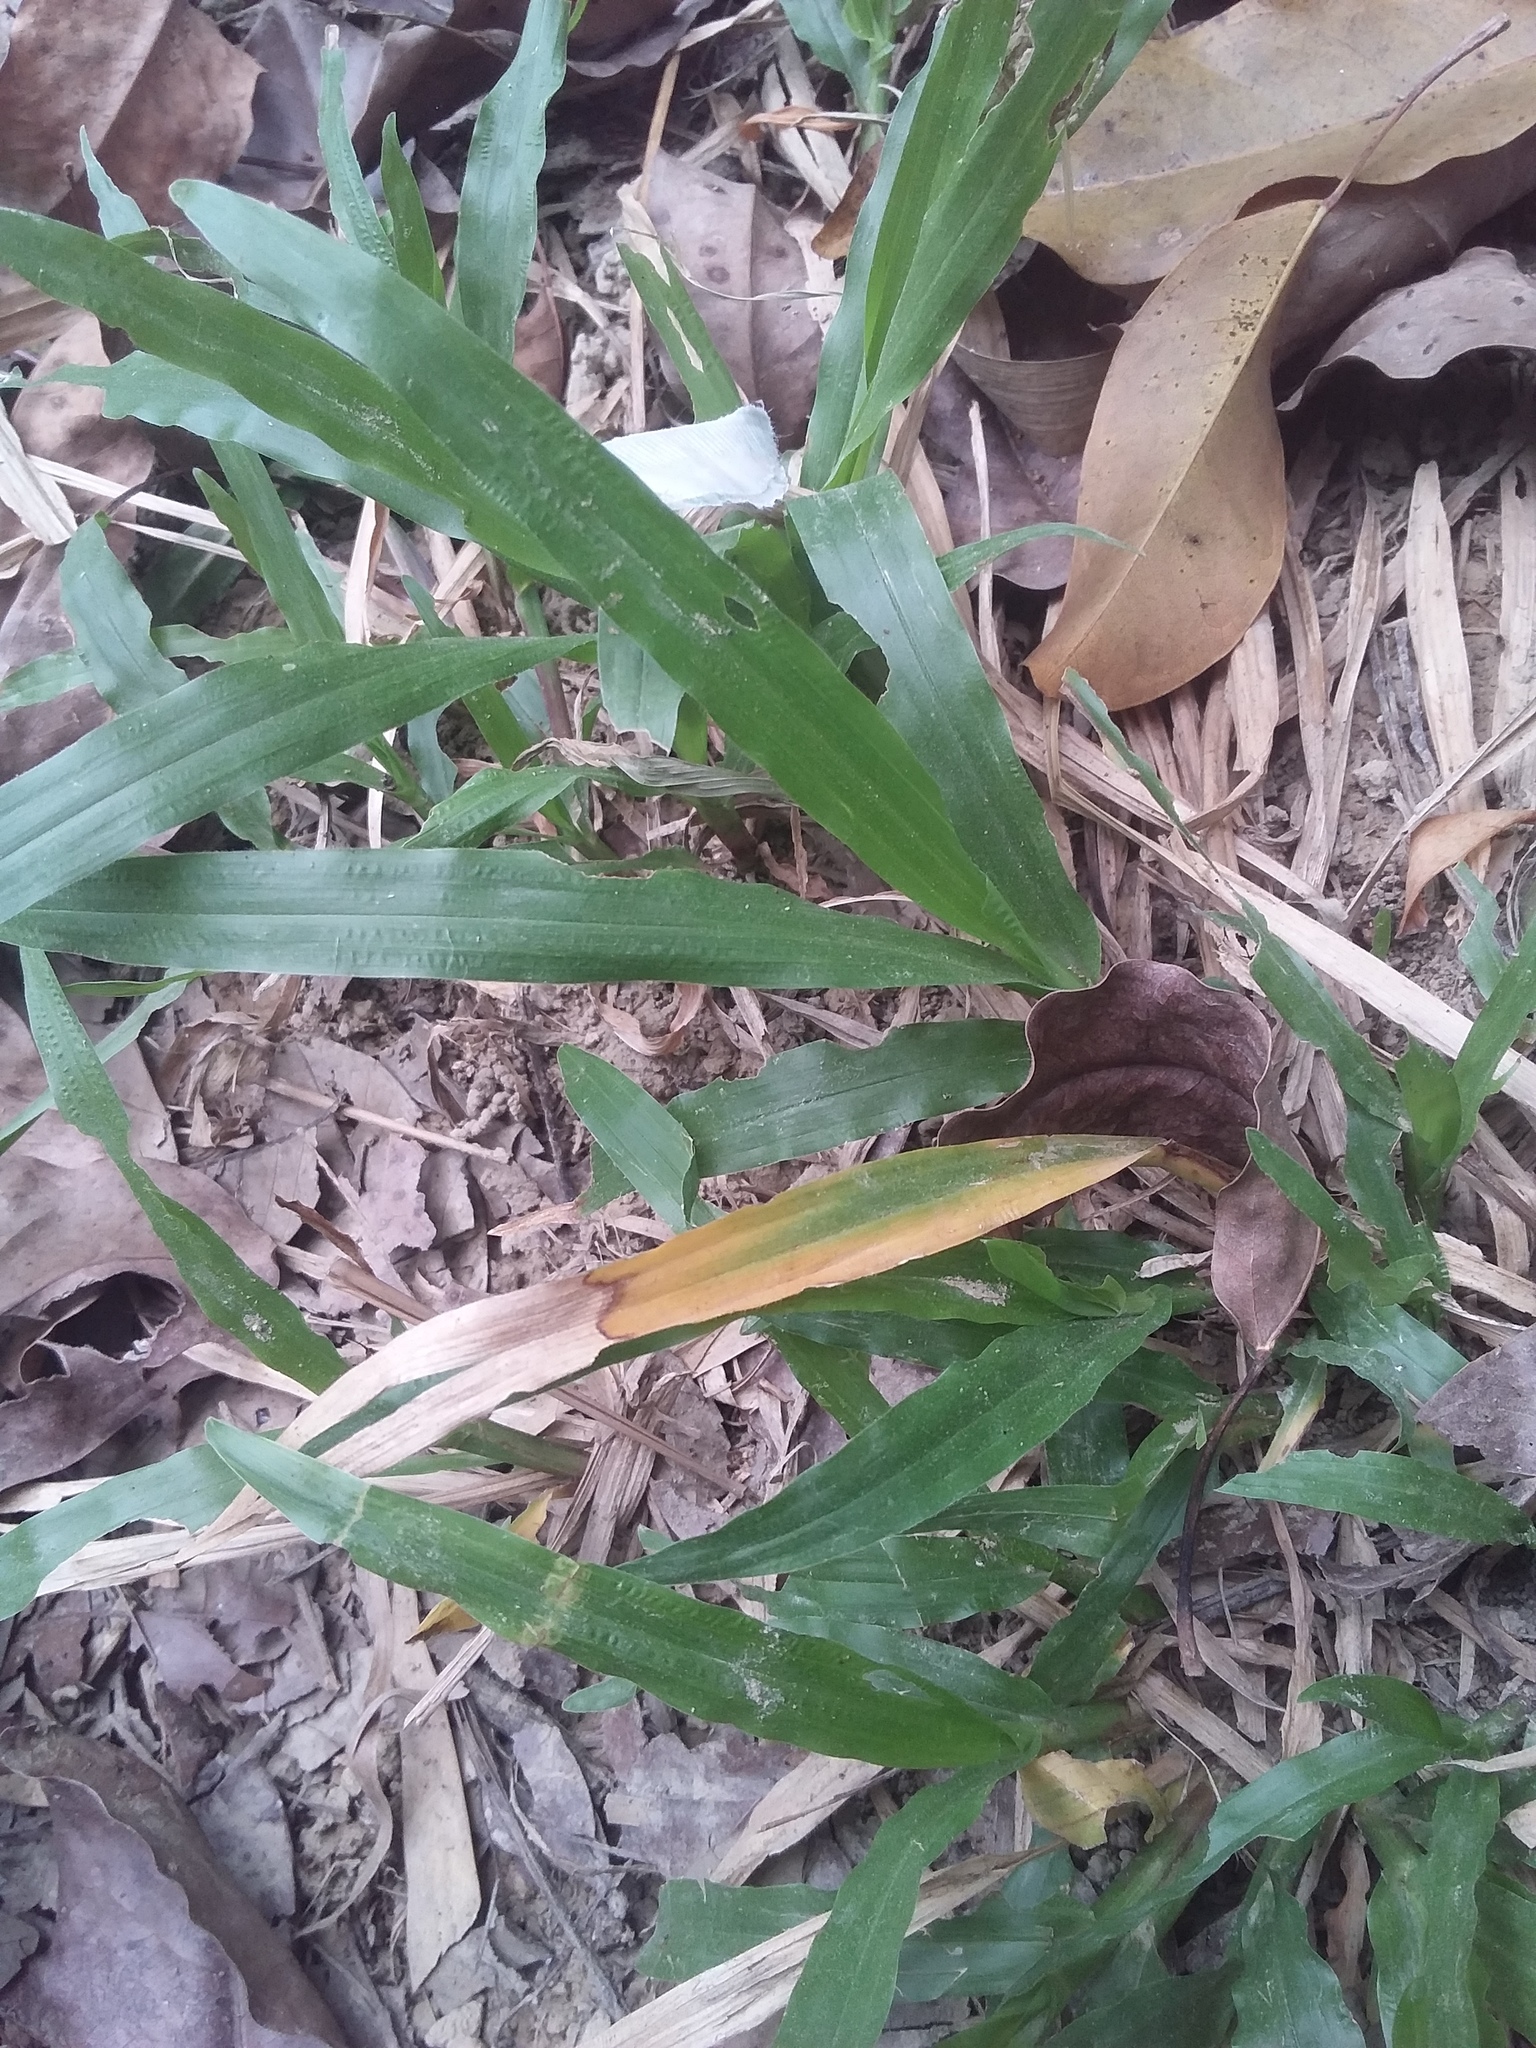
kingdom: Plantae
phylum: Tracheophyta
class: Liliopsida
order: Poales
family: Poaceae
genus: Axonopus
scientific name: Axonopus compressus
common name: American carpet grass
